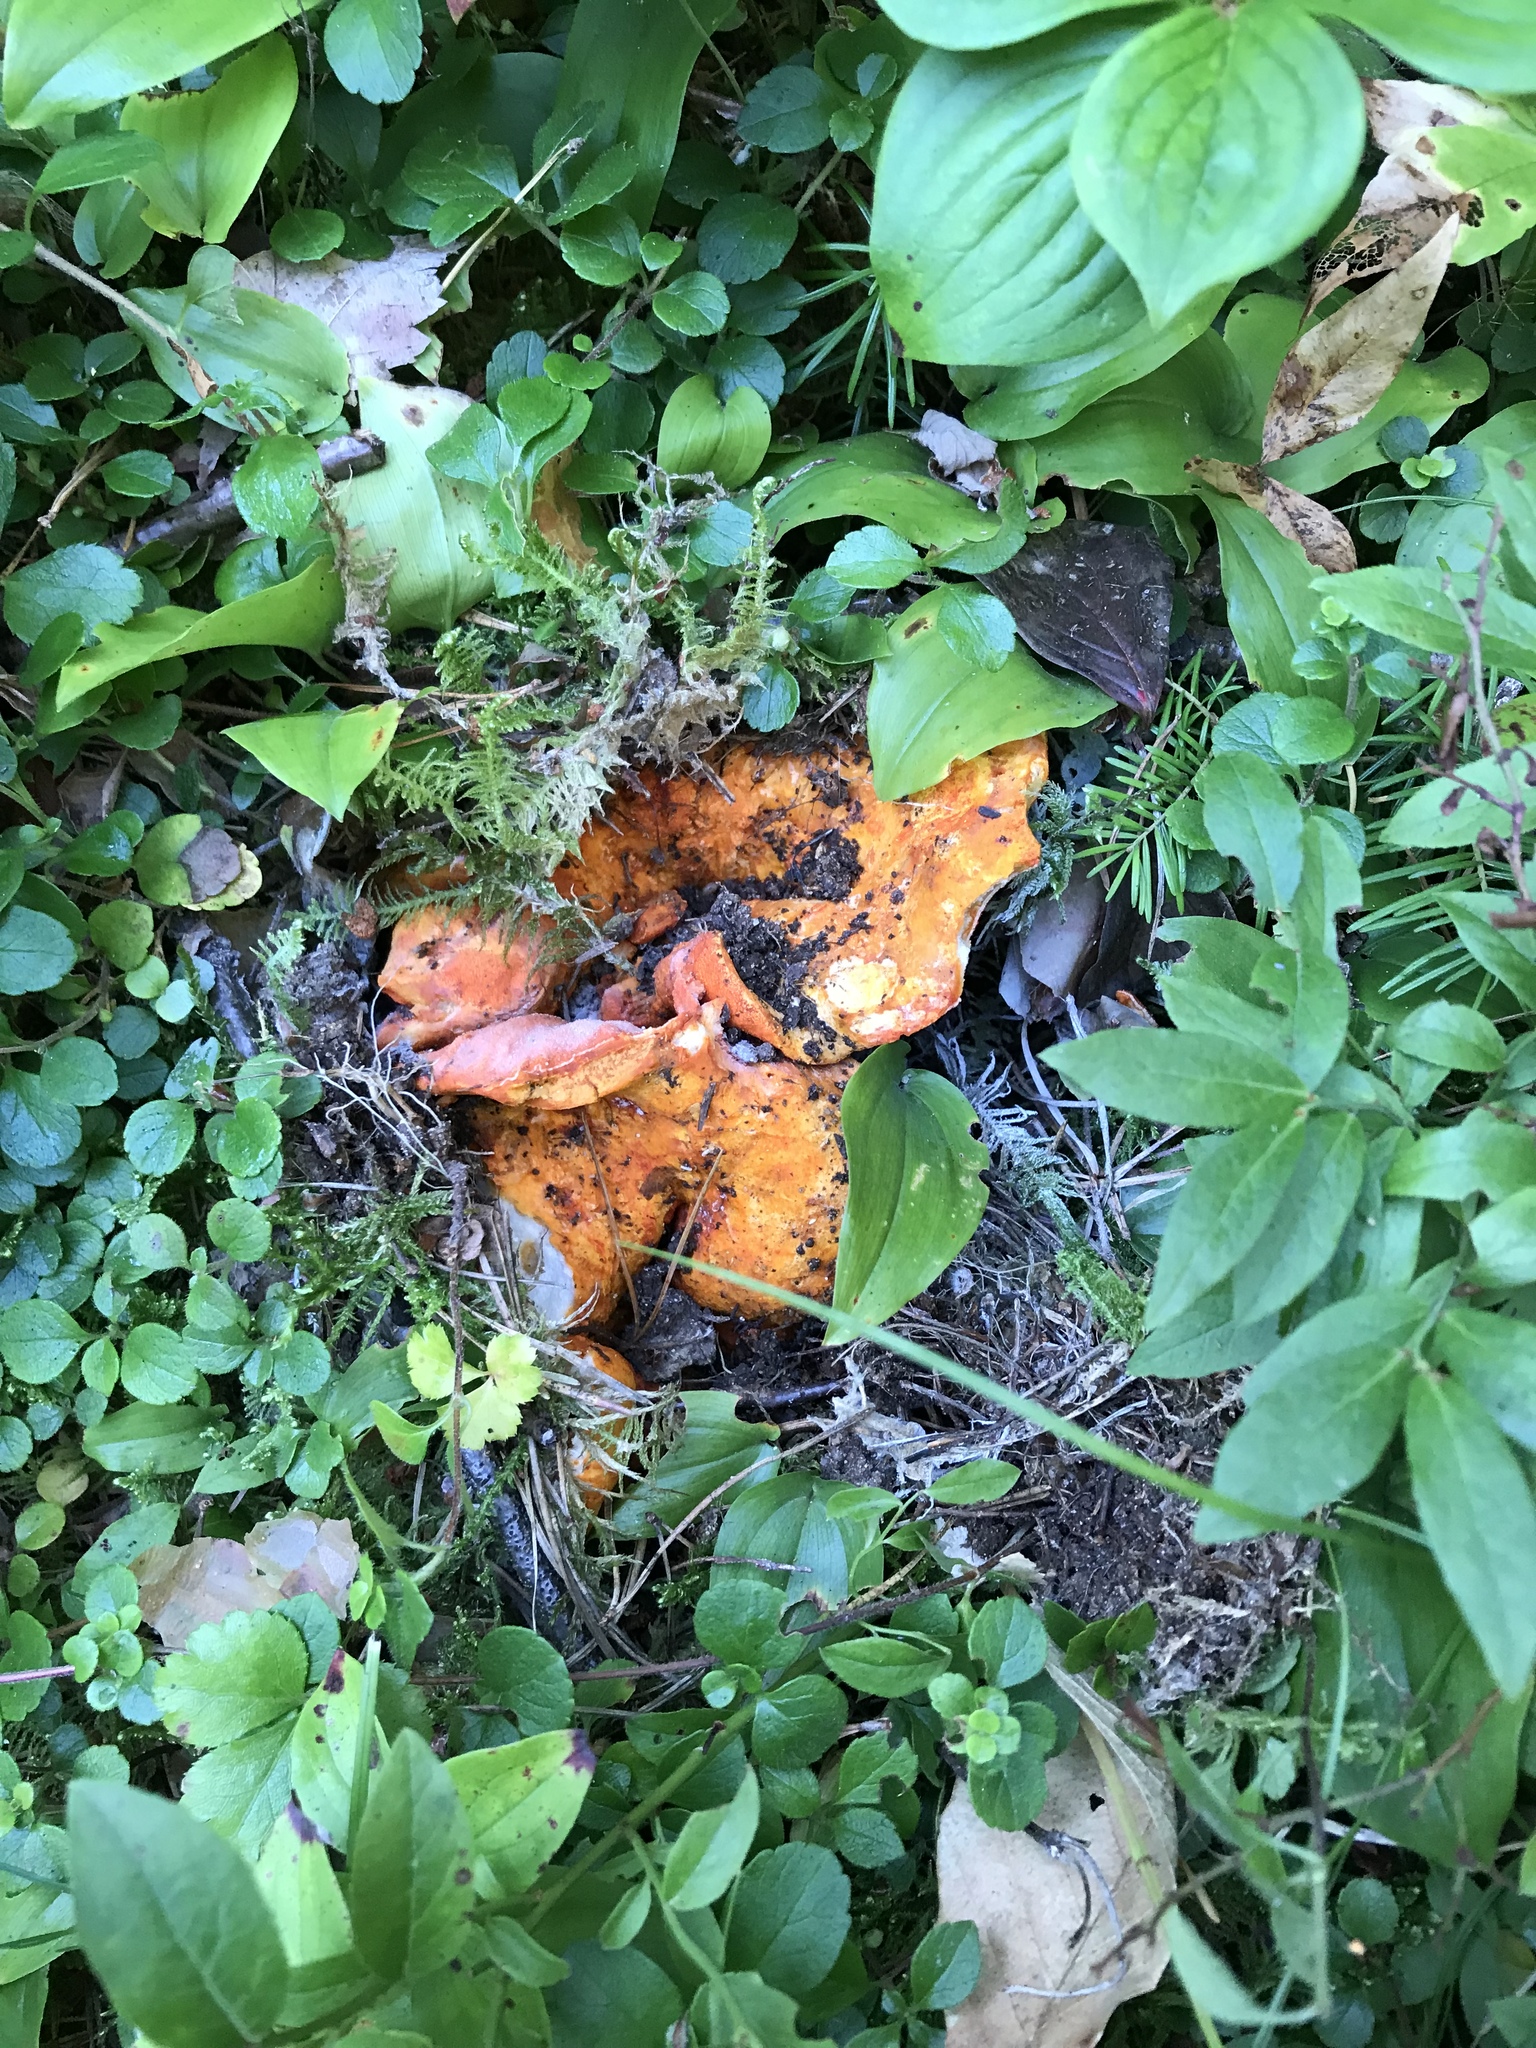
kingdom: Fungi
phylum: Ascomycota
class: Sordariomycetes
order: Hypocreales
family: Hypocreaceae
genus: Hypomyces
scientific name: Hypomyces lactifluorum
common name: Lobster mushroom
